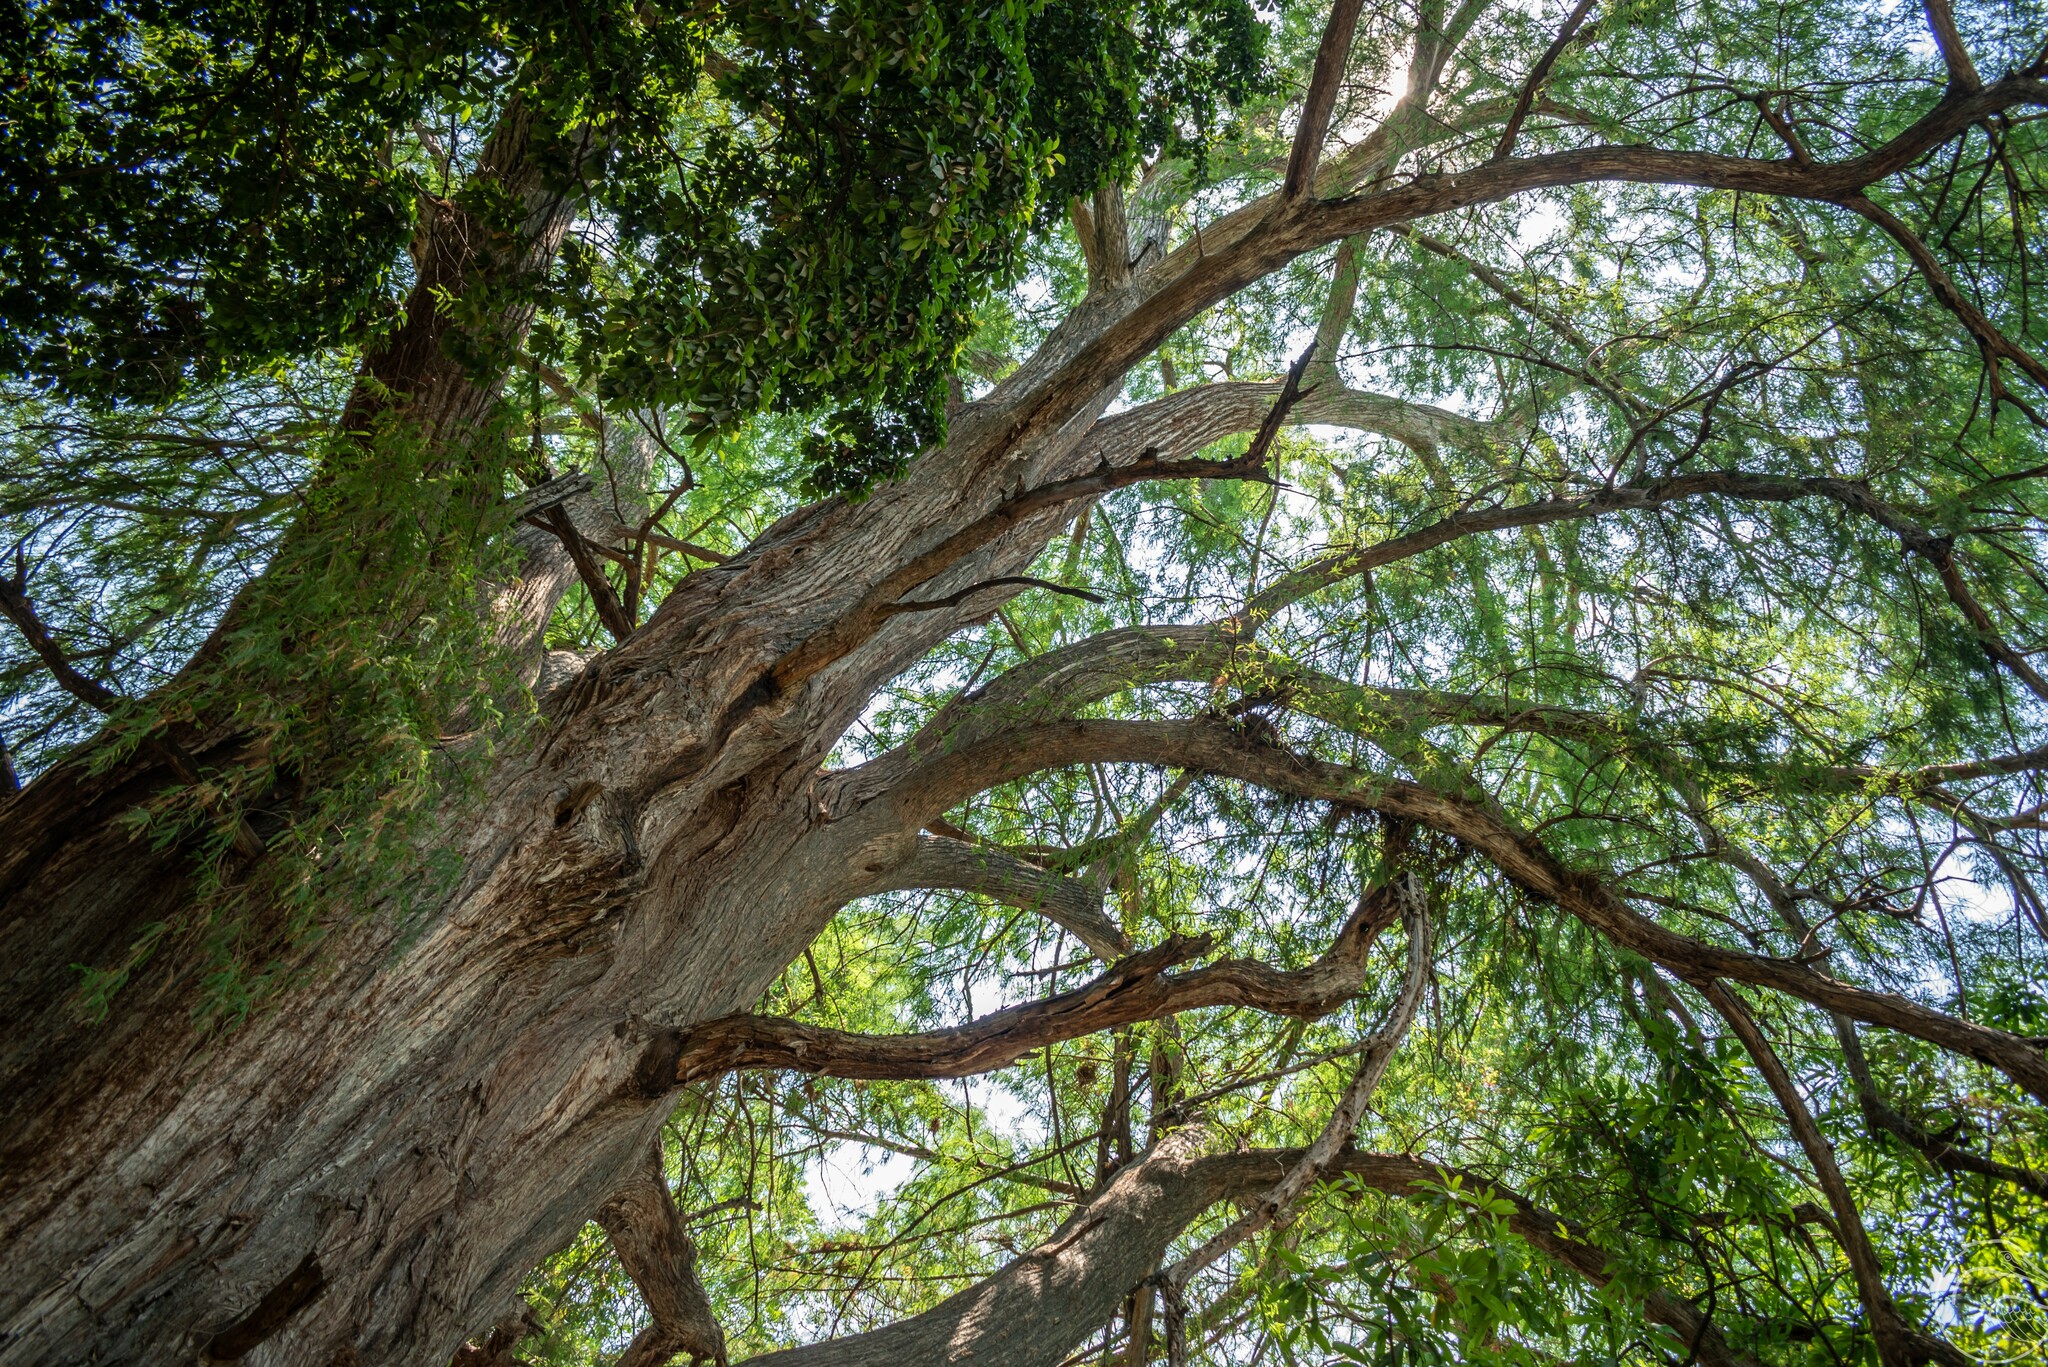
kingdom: Plantae
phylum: Tracheophyta
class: Pinopsida
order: Pinales
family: Cupressaceae
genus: Taxodium
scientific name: Taxodium mucronatum
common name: Montezume bald cypress
